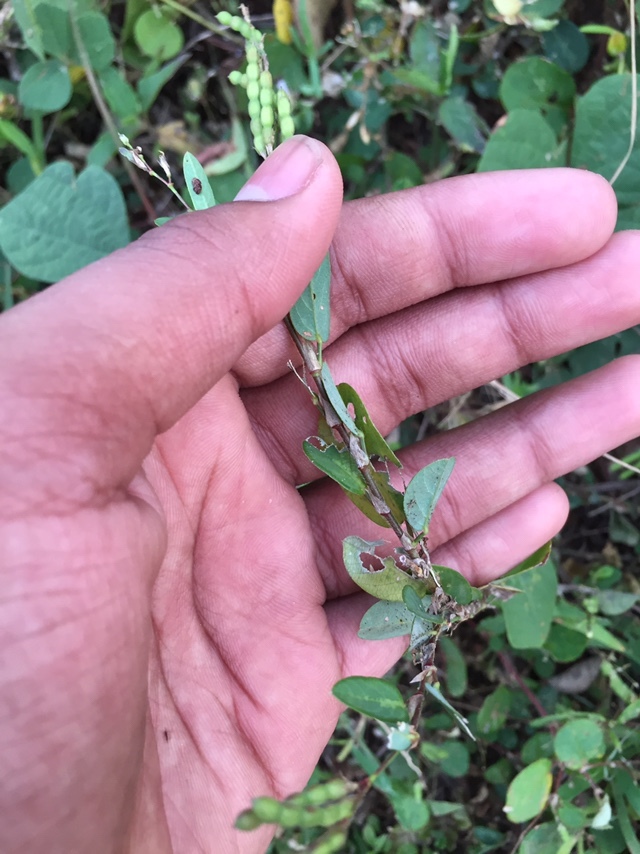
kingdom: Plantae
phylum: Tracheophyta
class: Magnoliopsida
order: Fabales
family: Fabaceae
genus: Alysicarpus
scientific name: Alysicarpus monilifer
